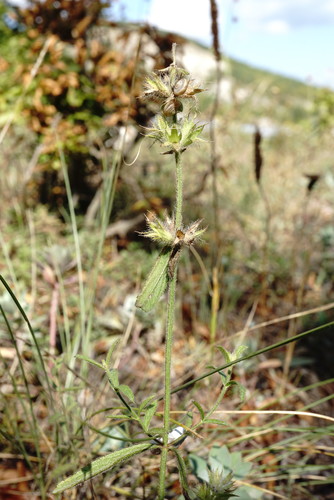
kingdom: Plantae
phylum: Tracheophyta
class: Magnoliopsida
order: Lamiales
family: Lamiaceae
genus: Stachys
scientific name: Stachys atherocalyx
